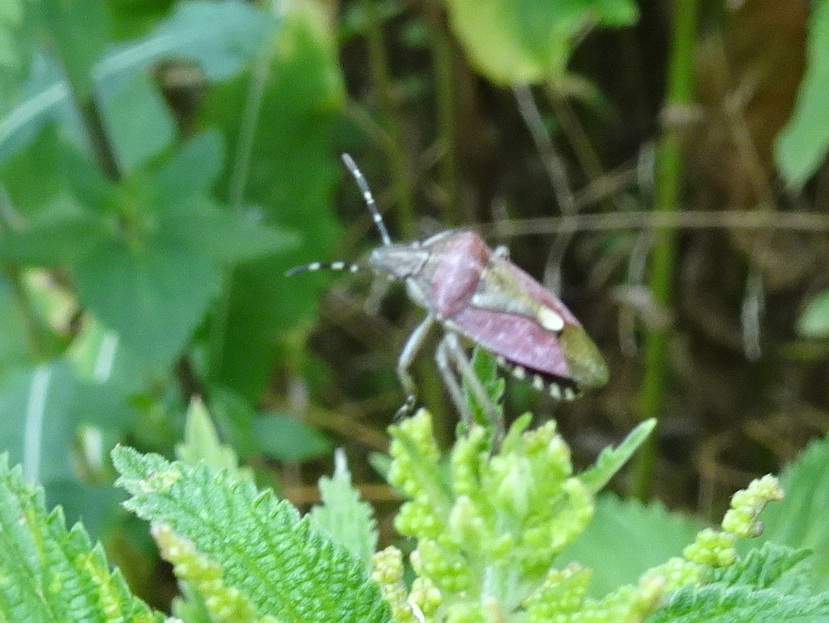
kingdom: Animalia
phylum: Arthropoda
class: Insecta
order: Hemiptera
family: Pentatomidae
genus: Dolycoris
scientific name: Dolycoris baccarum
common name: Sloe bug
